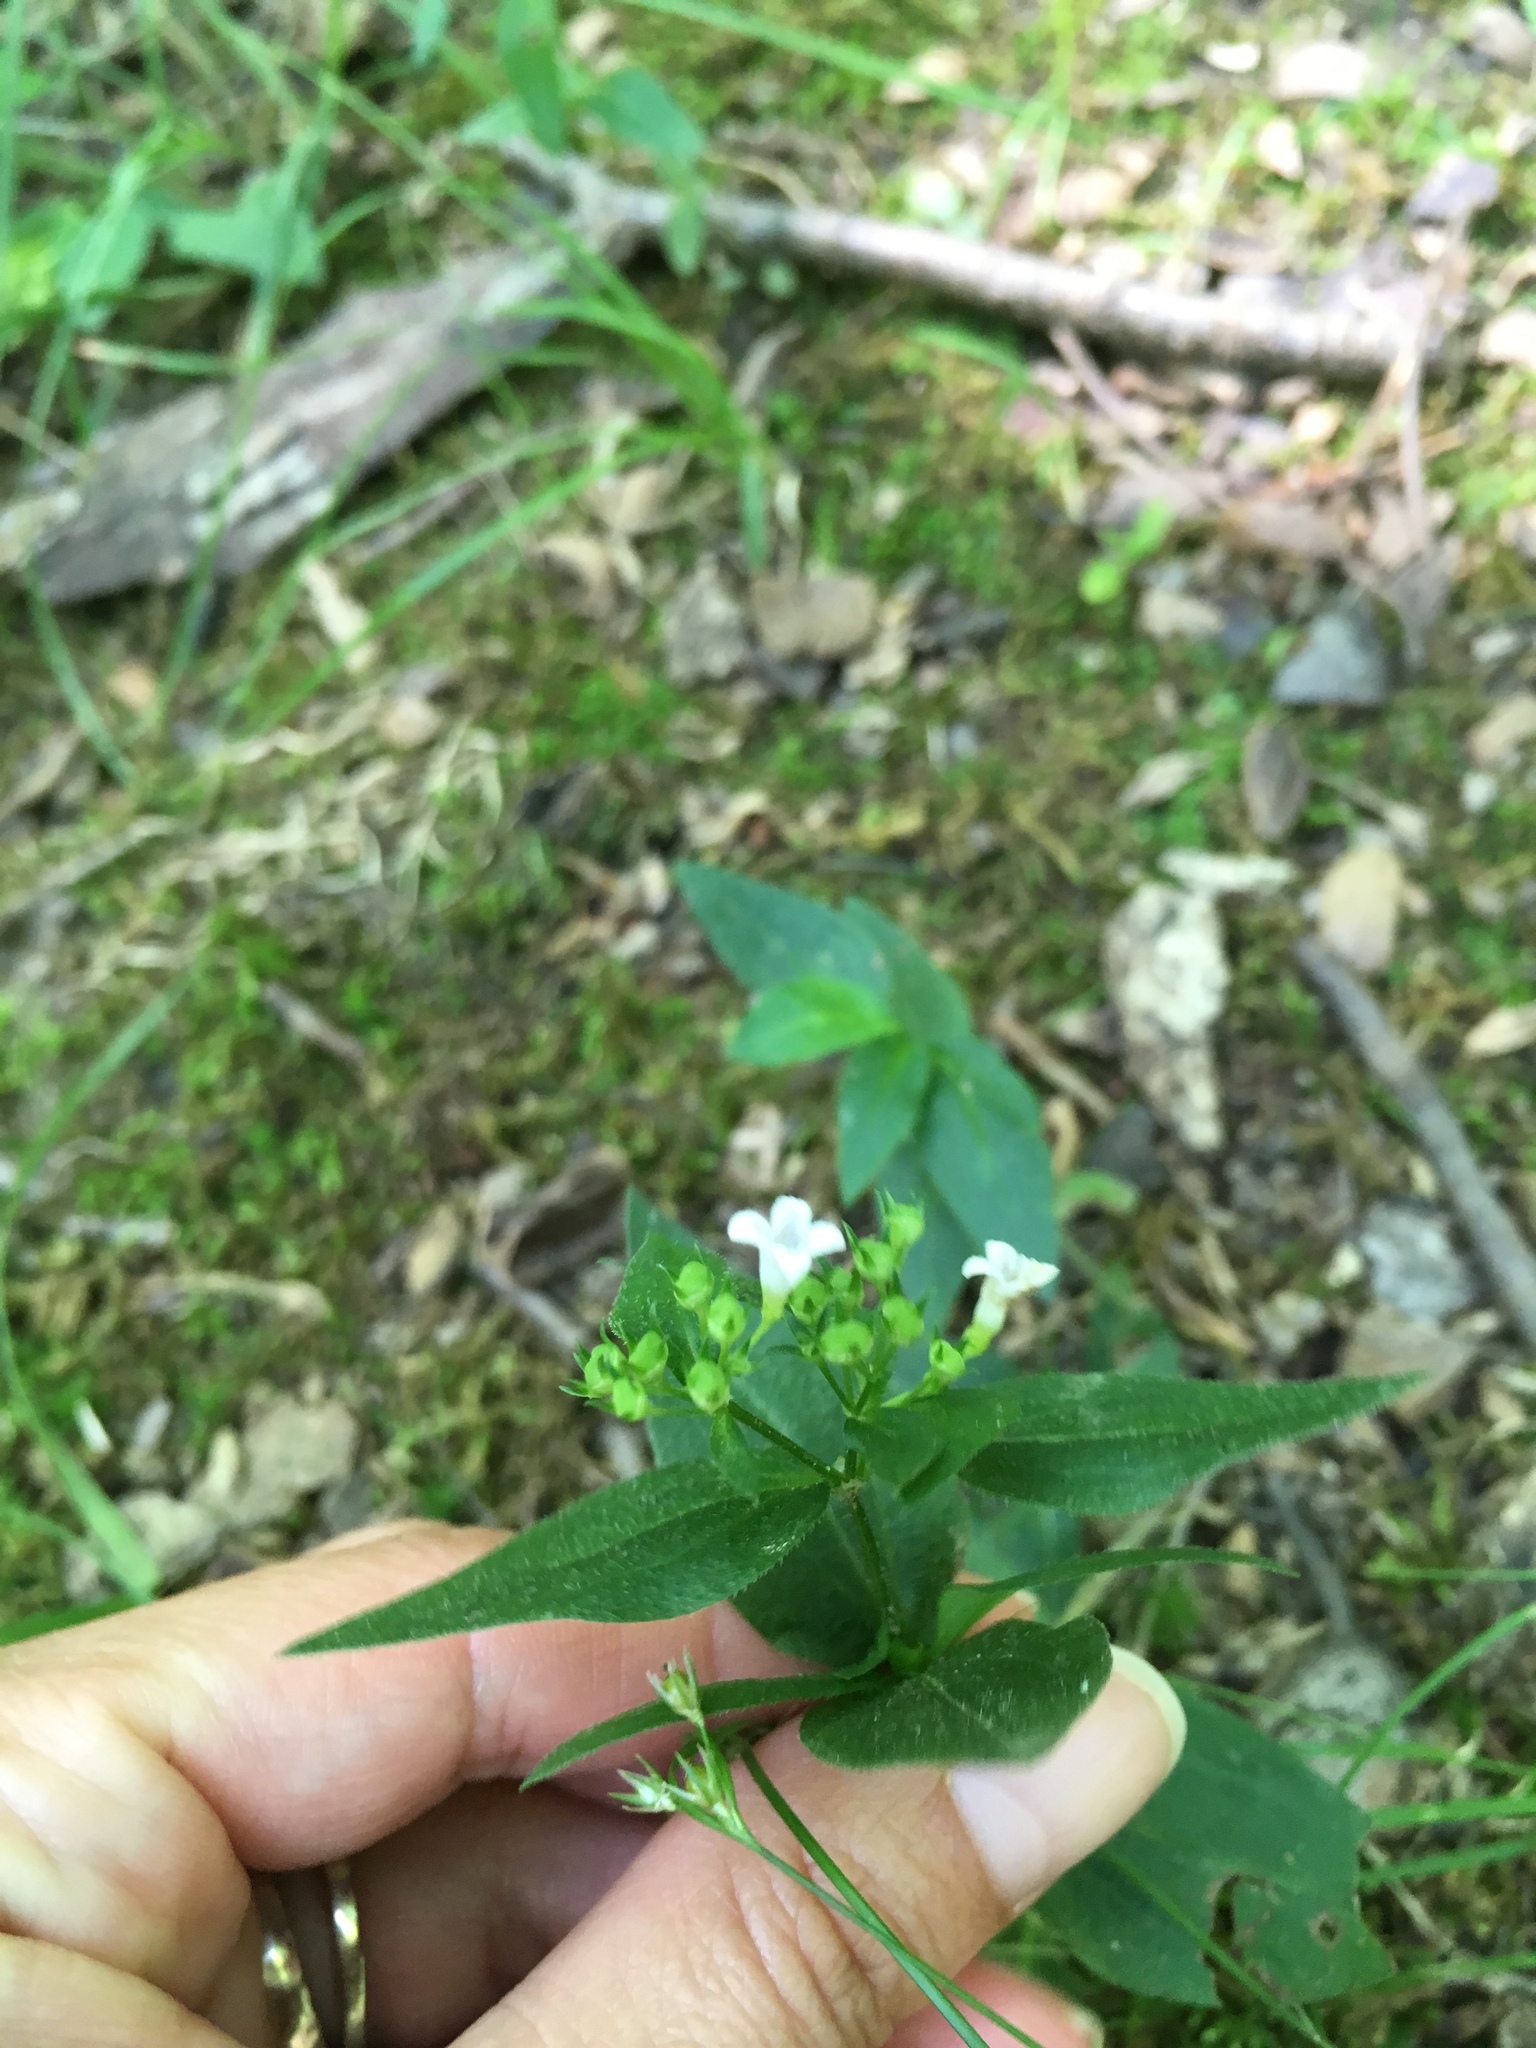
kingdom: Plantae
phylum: Tracheophyta
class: Magnoliopsida
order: Gentianales
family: Rubiaceae
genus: Houstonia
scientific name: Houstonia purpurea
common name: Summer bluet
